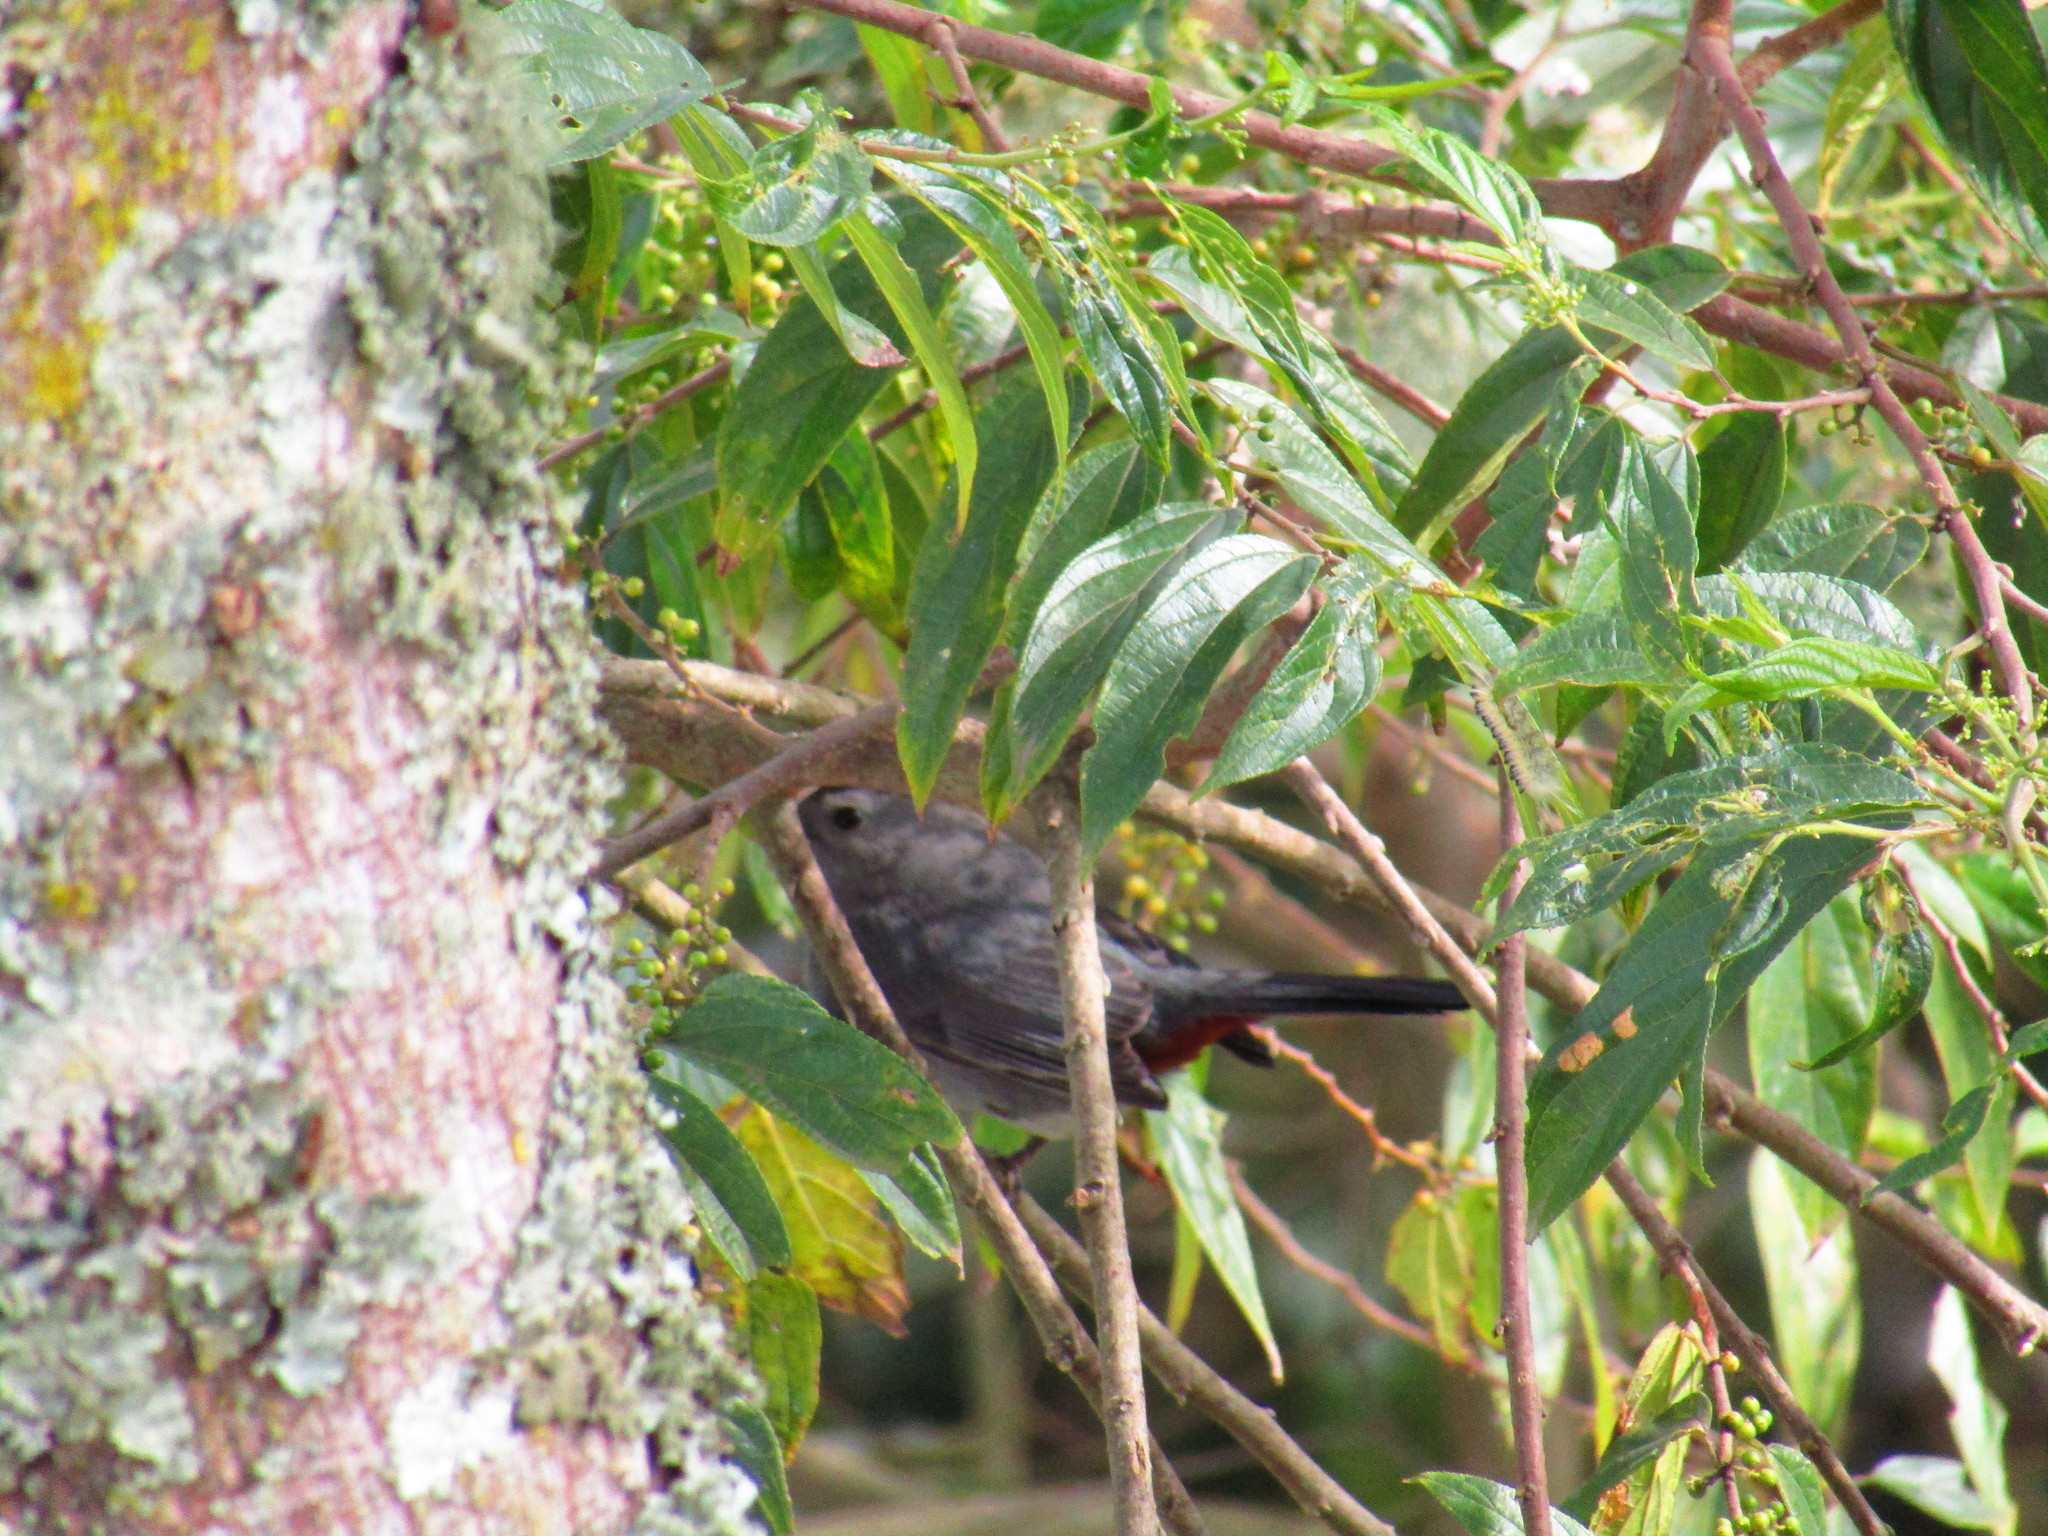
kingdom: Animalia
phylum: Chordata
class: Aves
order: Passeriformes
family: Mimidae
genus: Dumetella
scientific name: Dumetella carolinensis
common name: Gray catbird
